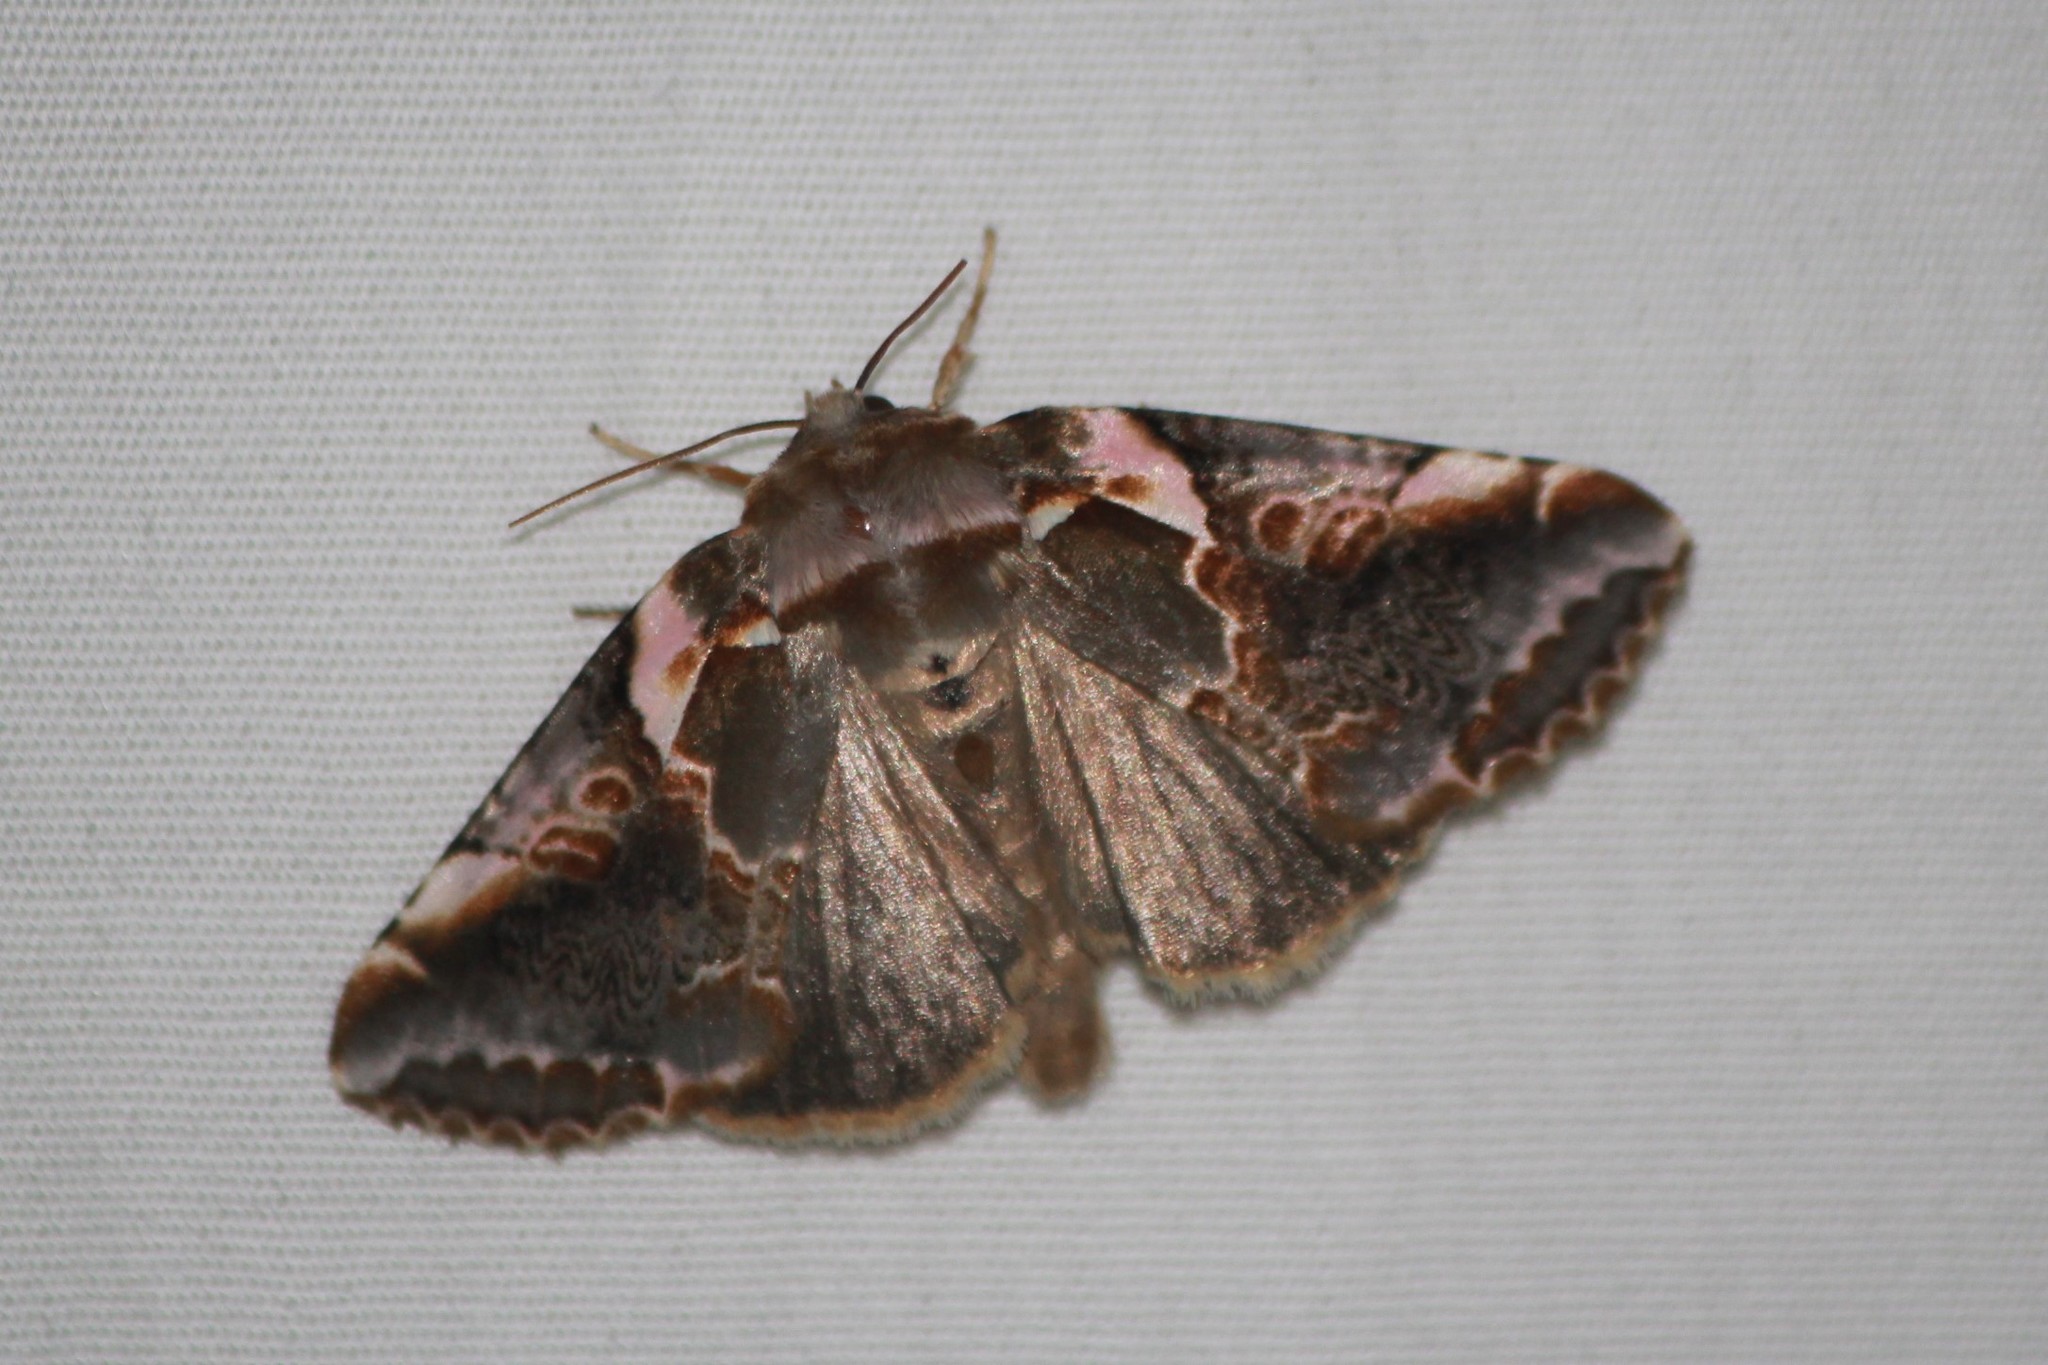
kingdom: Animalia
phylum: Arthropoda
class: Insecta
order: Lepidoptera
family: Drepanidae
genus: Habrosyne
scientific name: Habrosyne gloriosa
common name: Glorious habrosyne moth
